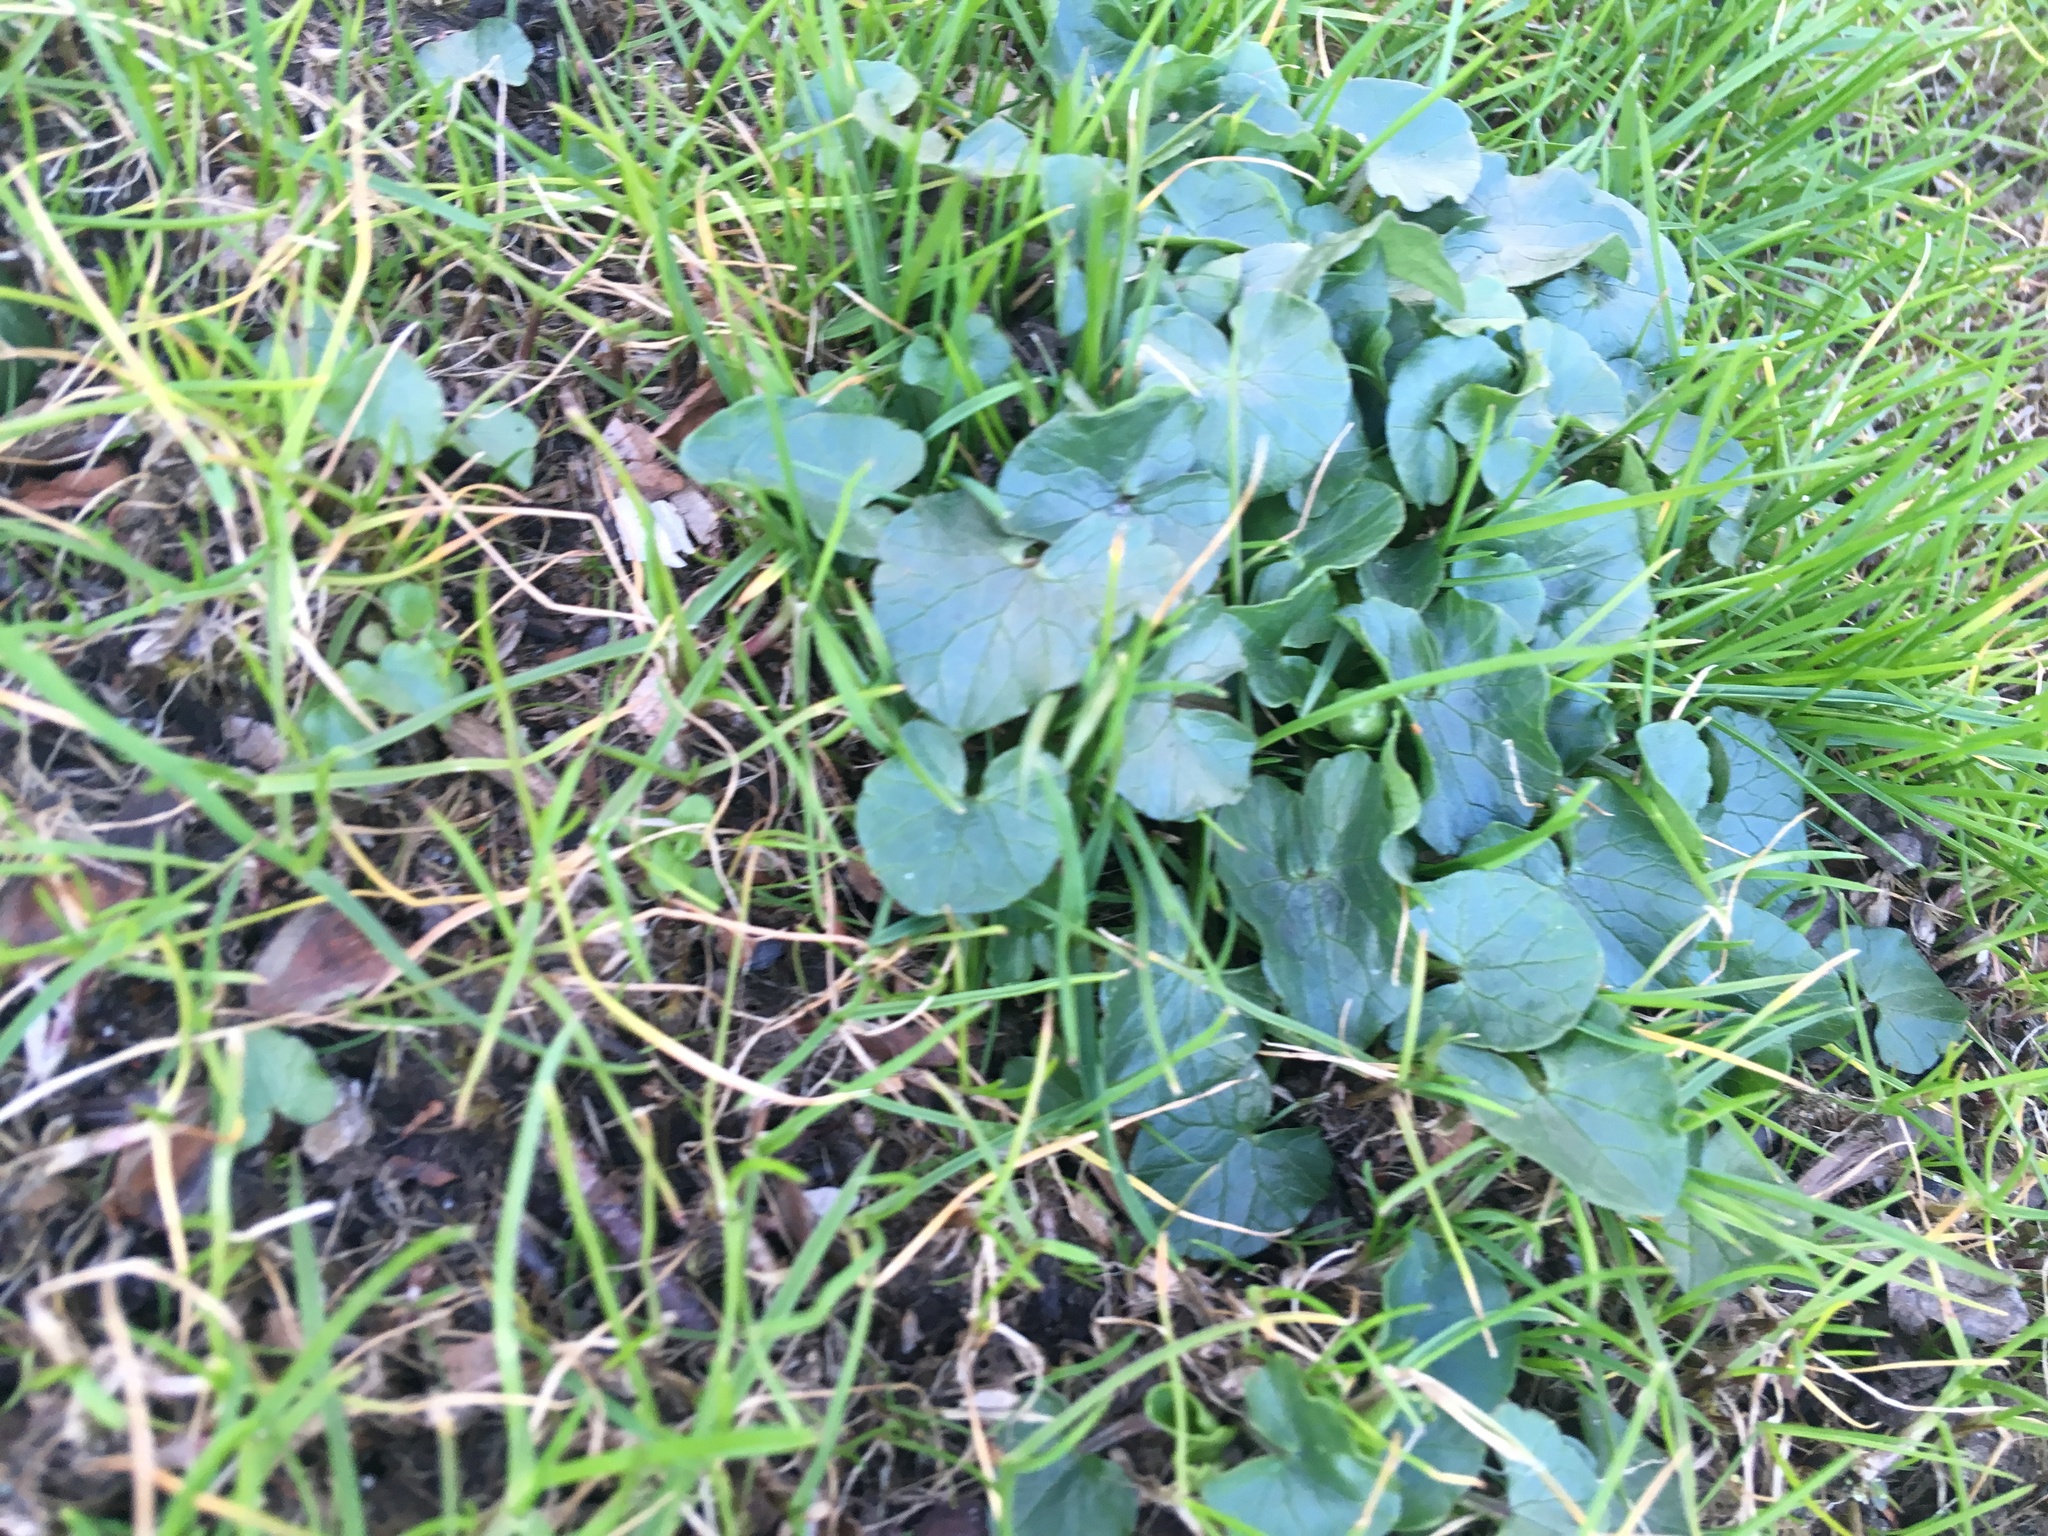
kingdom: Plantae
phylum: Tracheophyta
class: Magnoliopsida
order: Ranunculales
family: Ranunculaceae
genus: Ficaria
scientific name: Ficaria verna
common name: Lesser celandine
